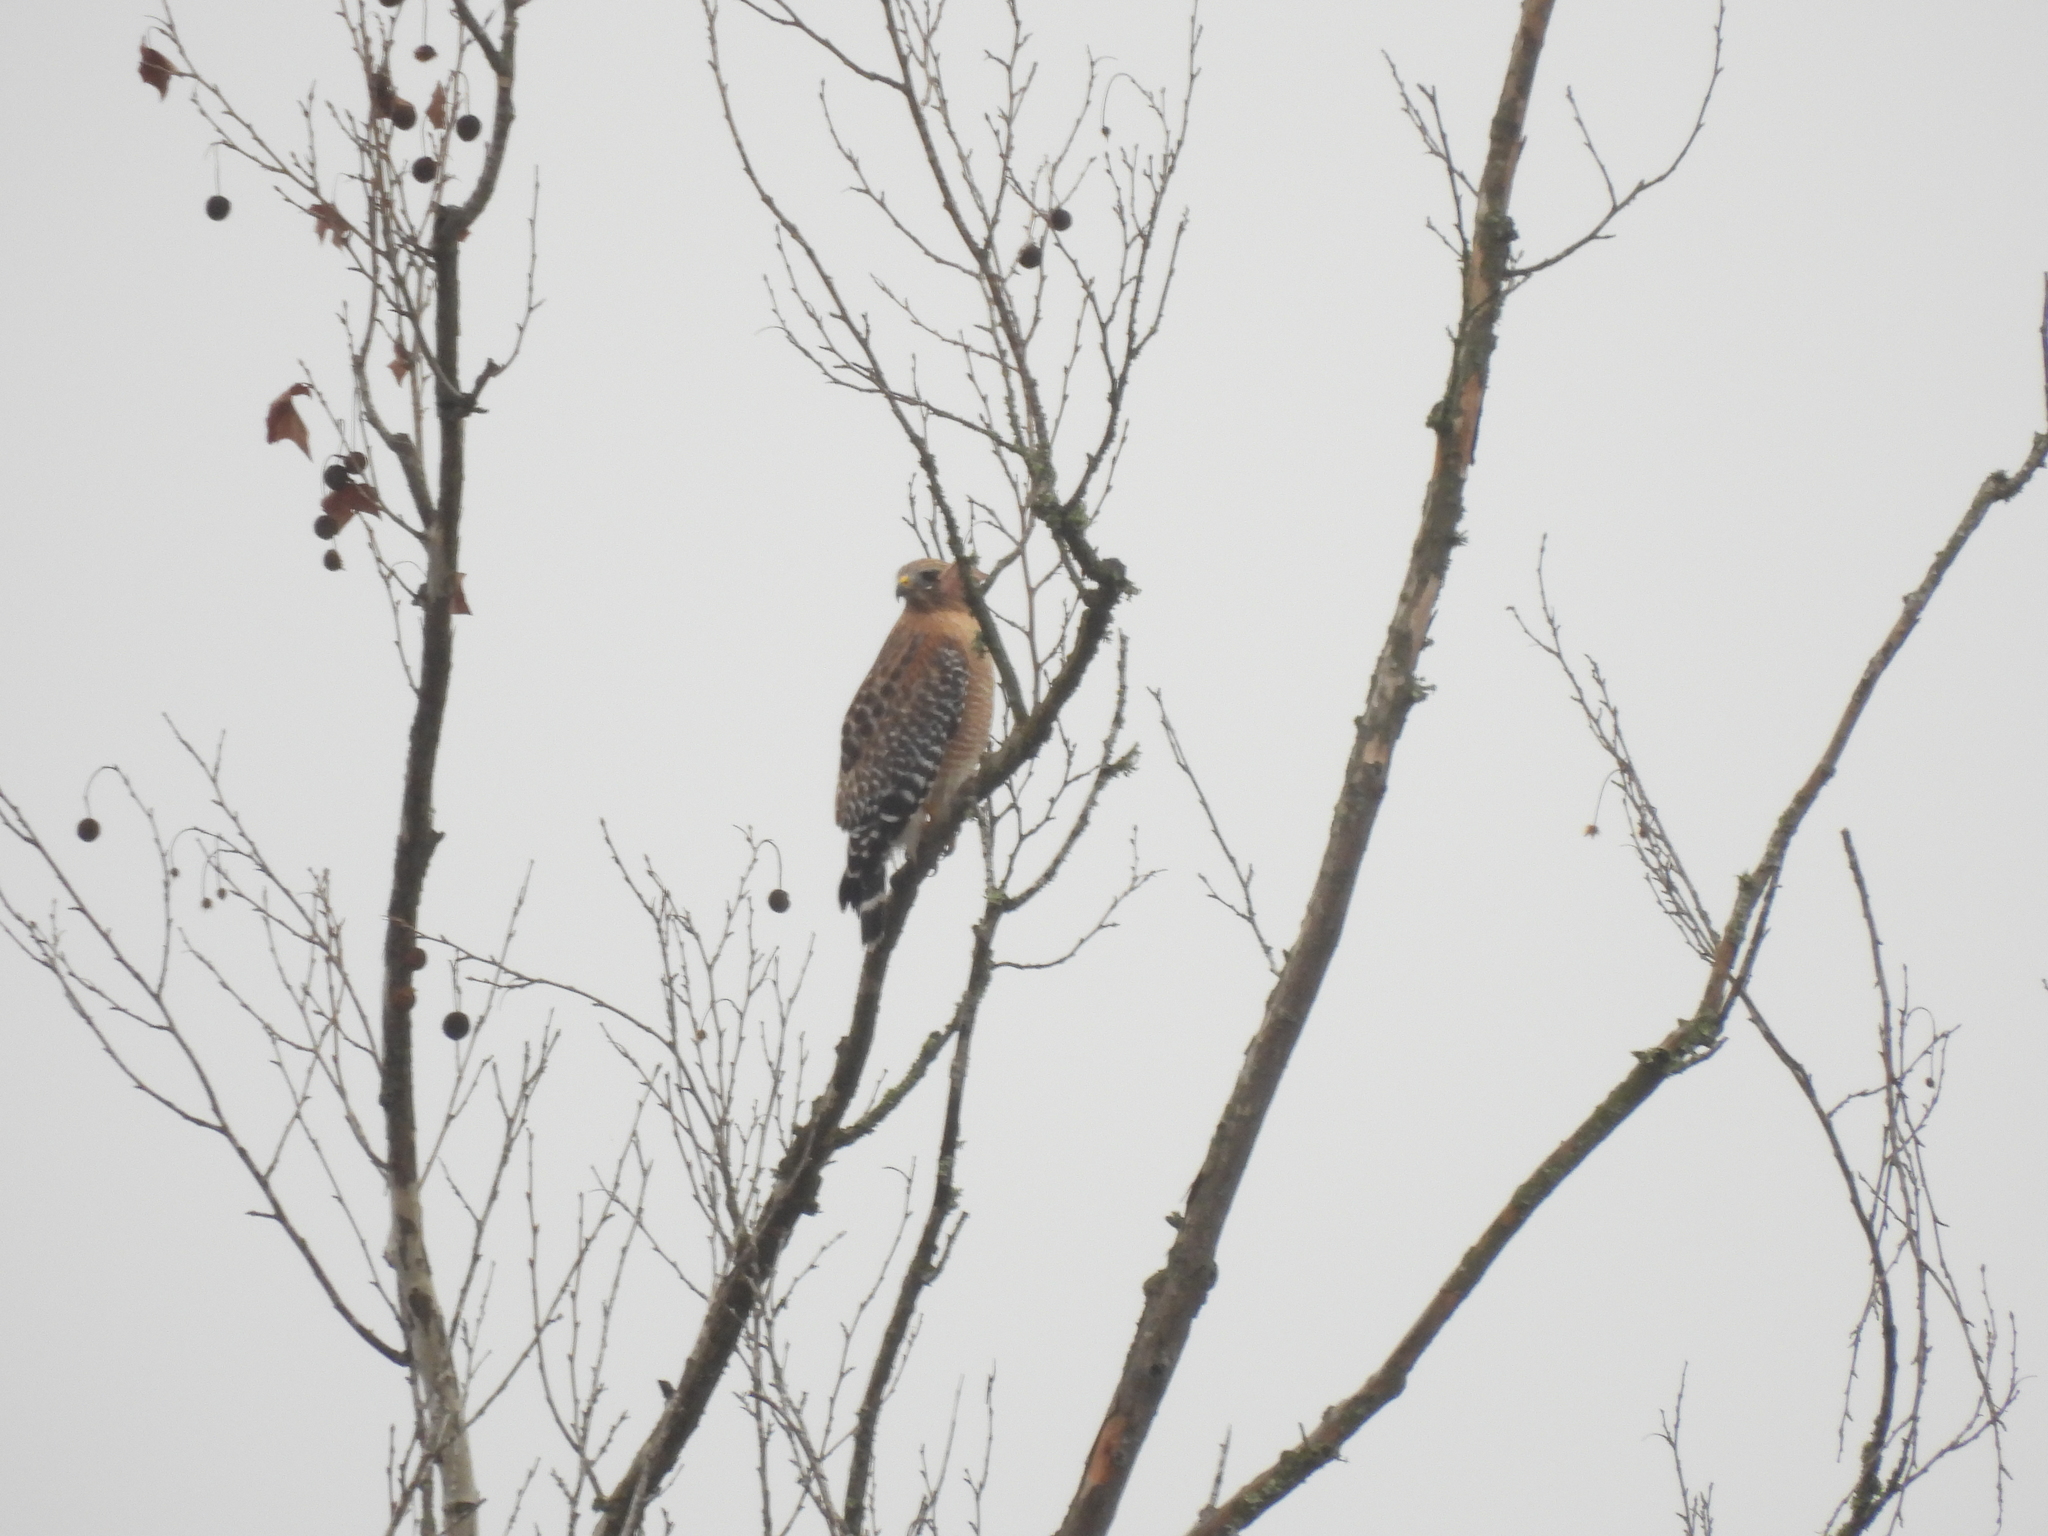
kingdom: Animalia
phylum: Chordata
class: Aves
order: Accipitriformes
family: Accipitridae
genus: Buteo
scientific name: Buteo lineatus
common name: Red-shouldered hawk
